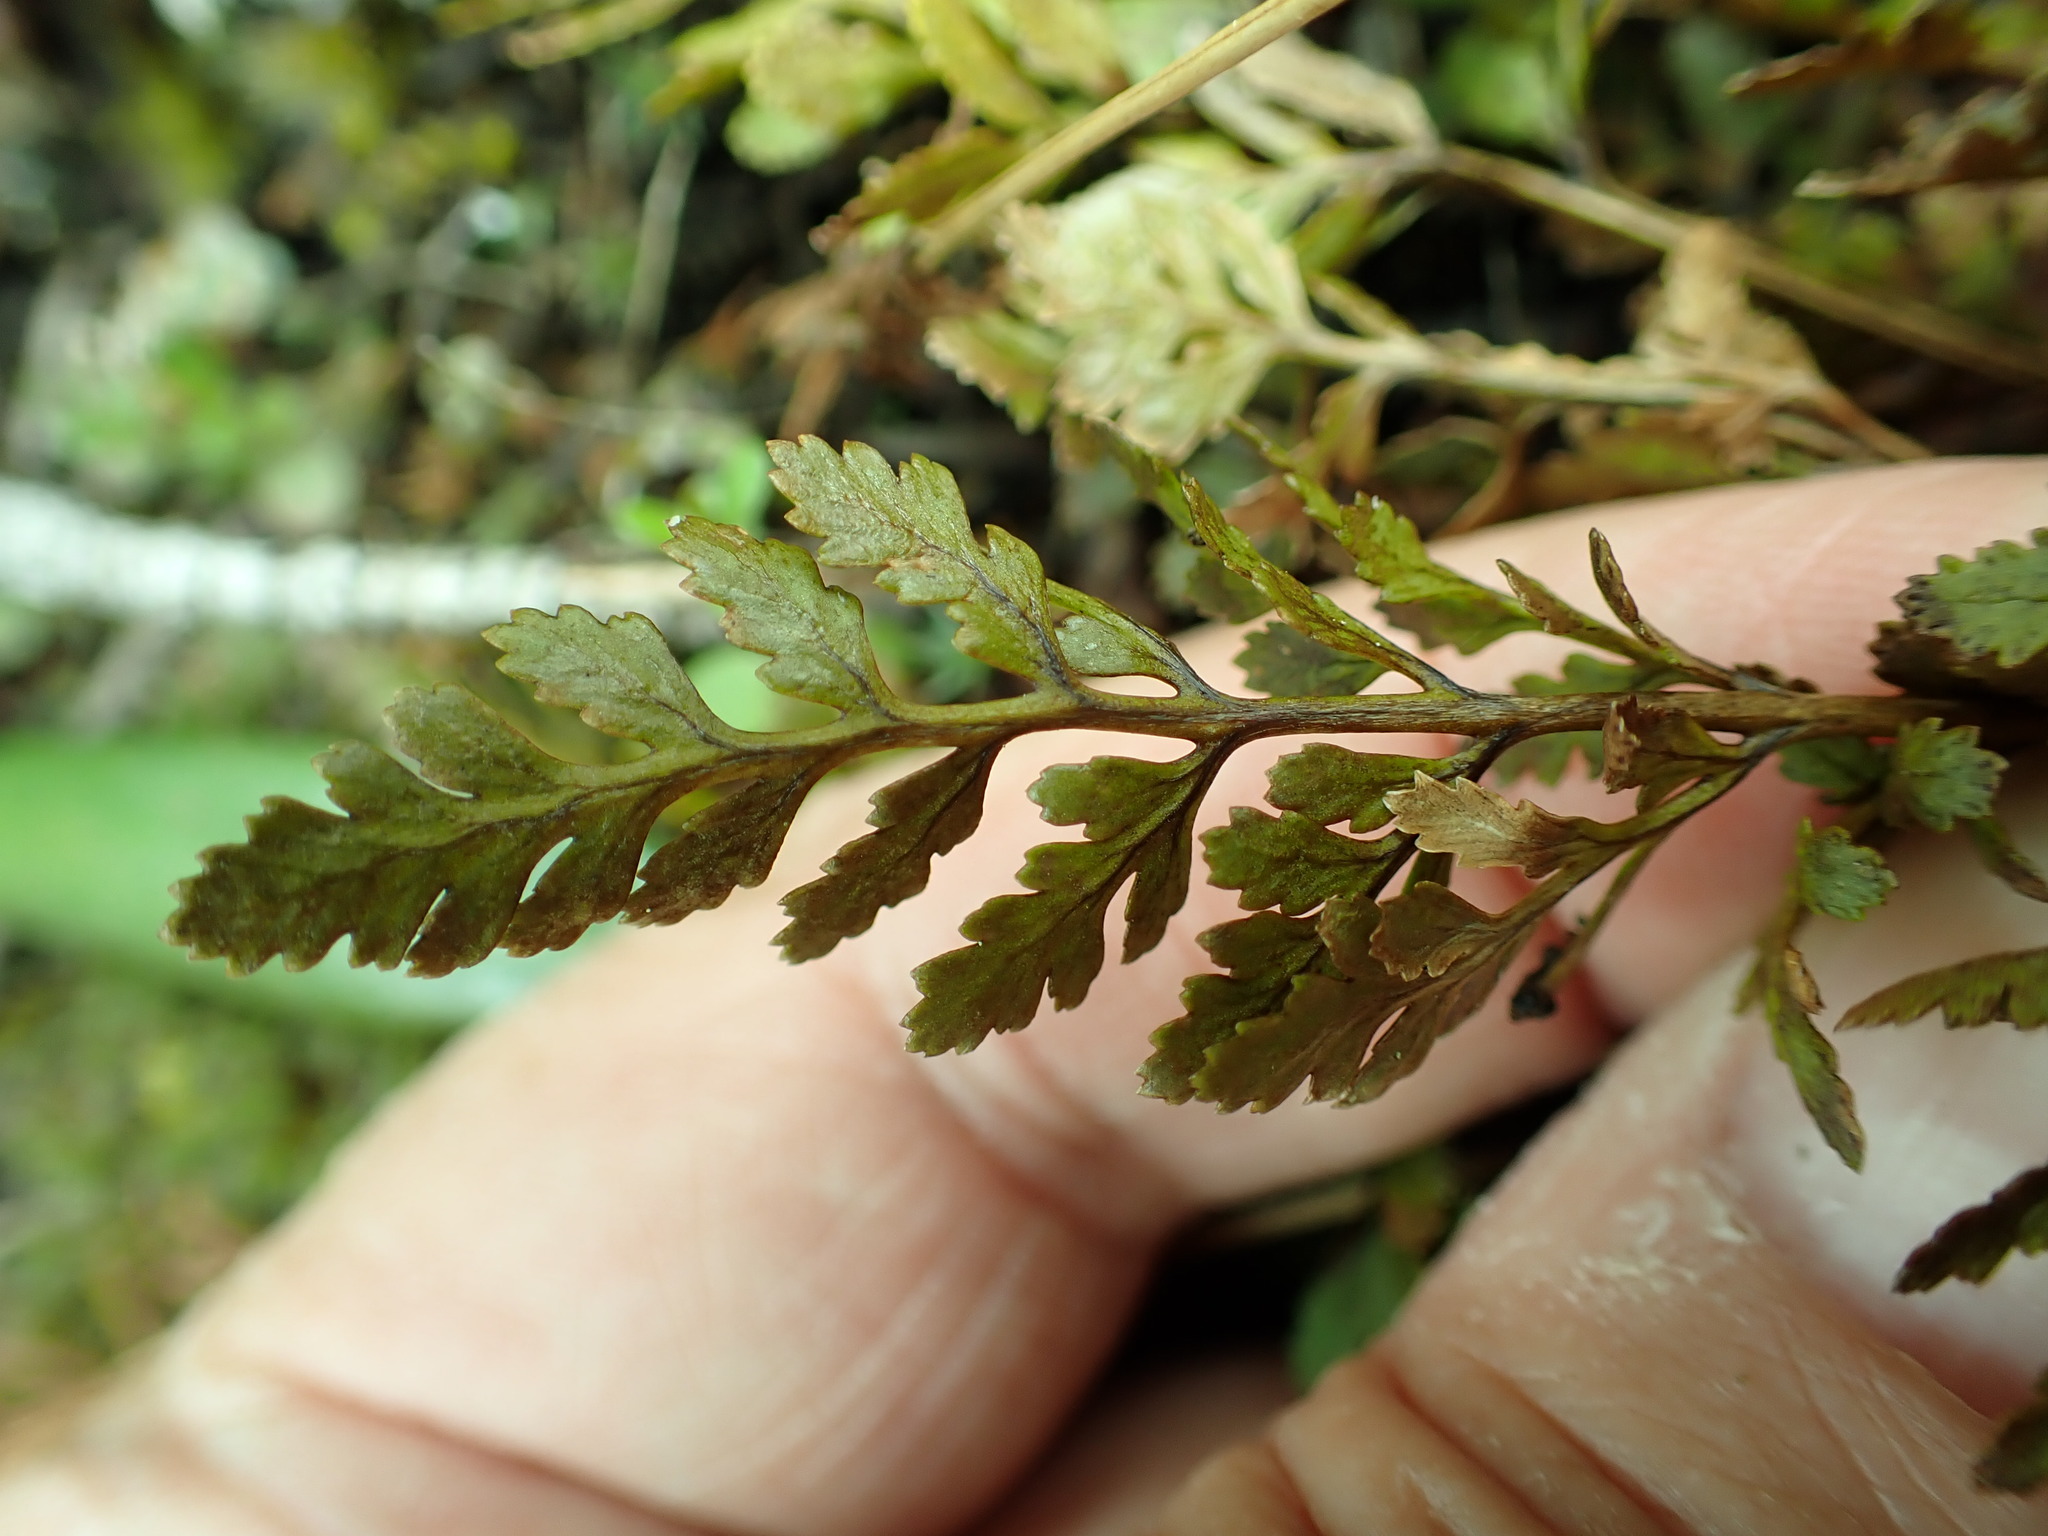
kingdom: Plantae
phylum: Tracheophyta
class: Polypodiopsida
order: Polypodiales
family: Pteridaceae
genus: Cryptogramma
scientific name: Cryptogramma acrostichoides
